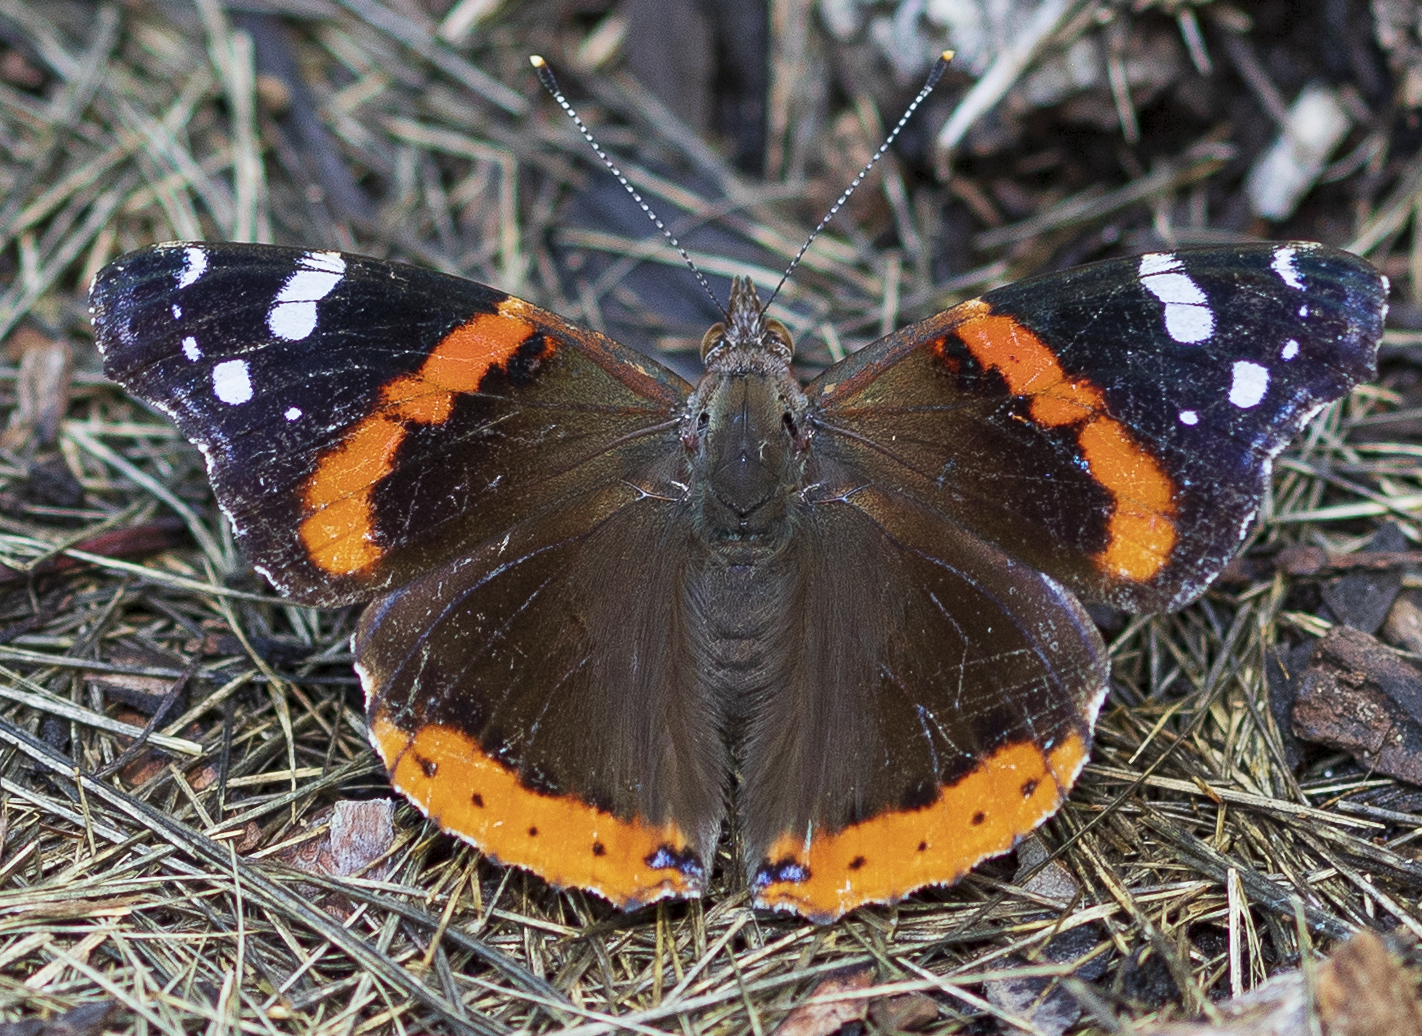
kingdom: Animalia
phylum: Arthropoda
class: Insecta
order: Lepidoptera
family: Nymphalidae
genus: Vanessa
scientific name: Vanessa atalanta
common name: Red admiral
